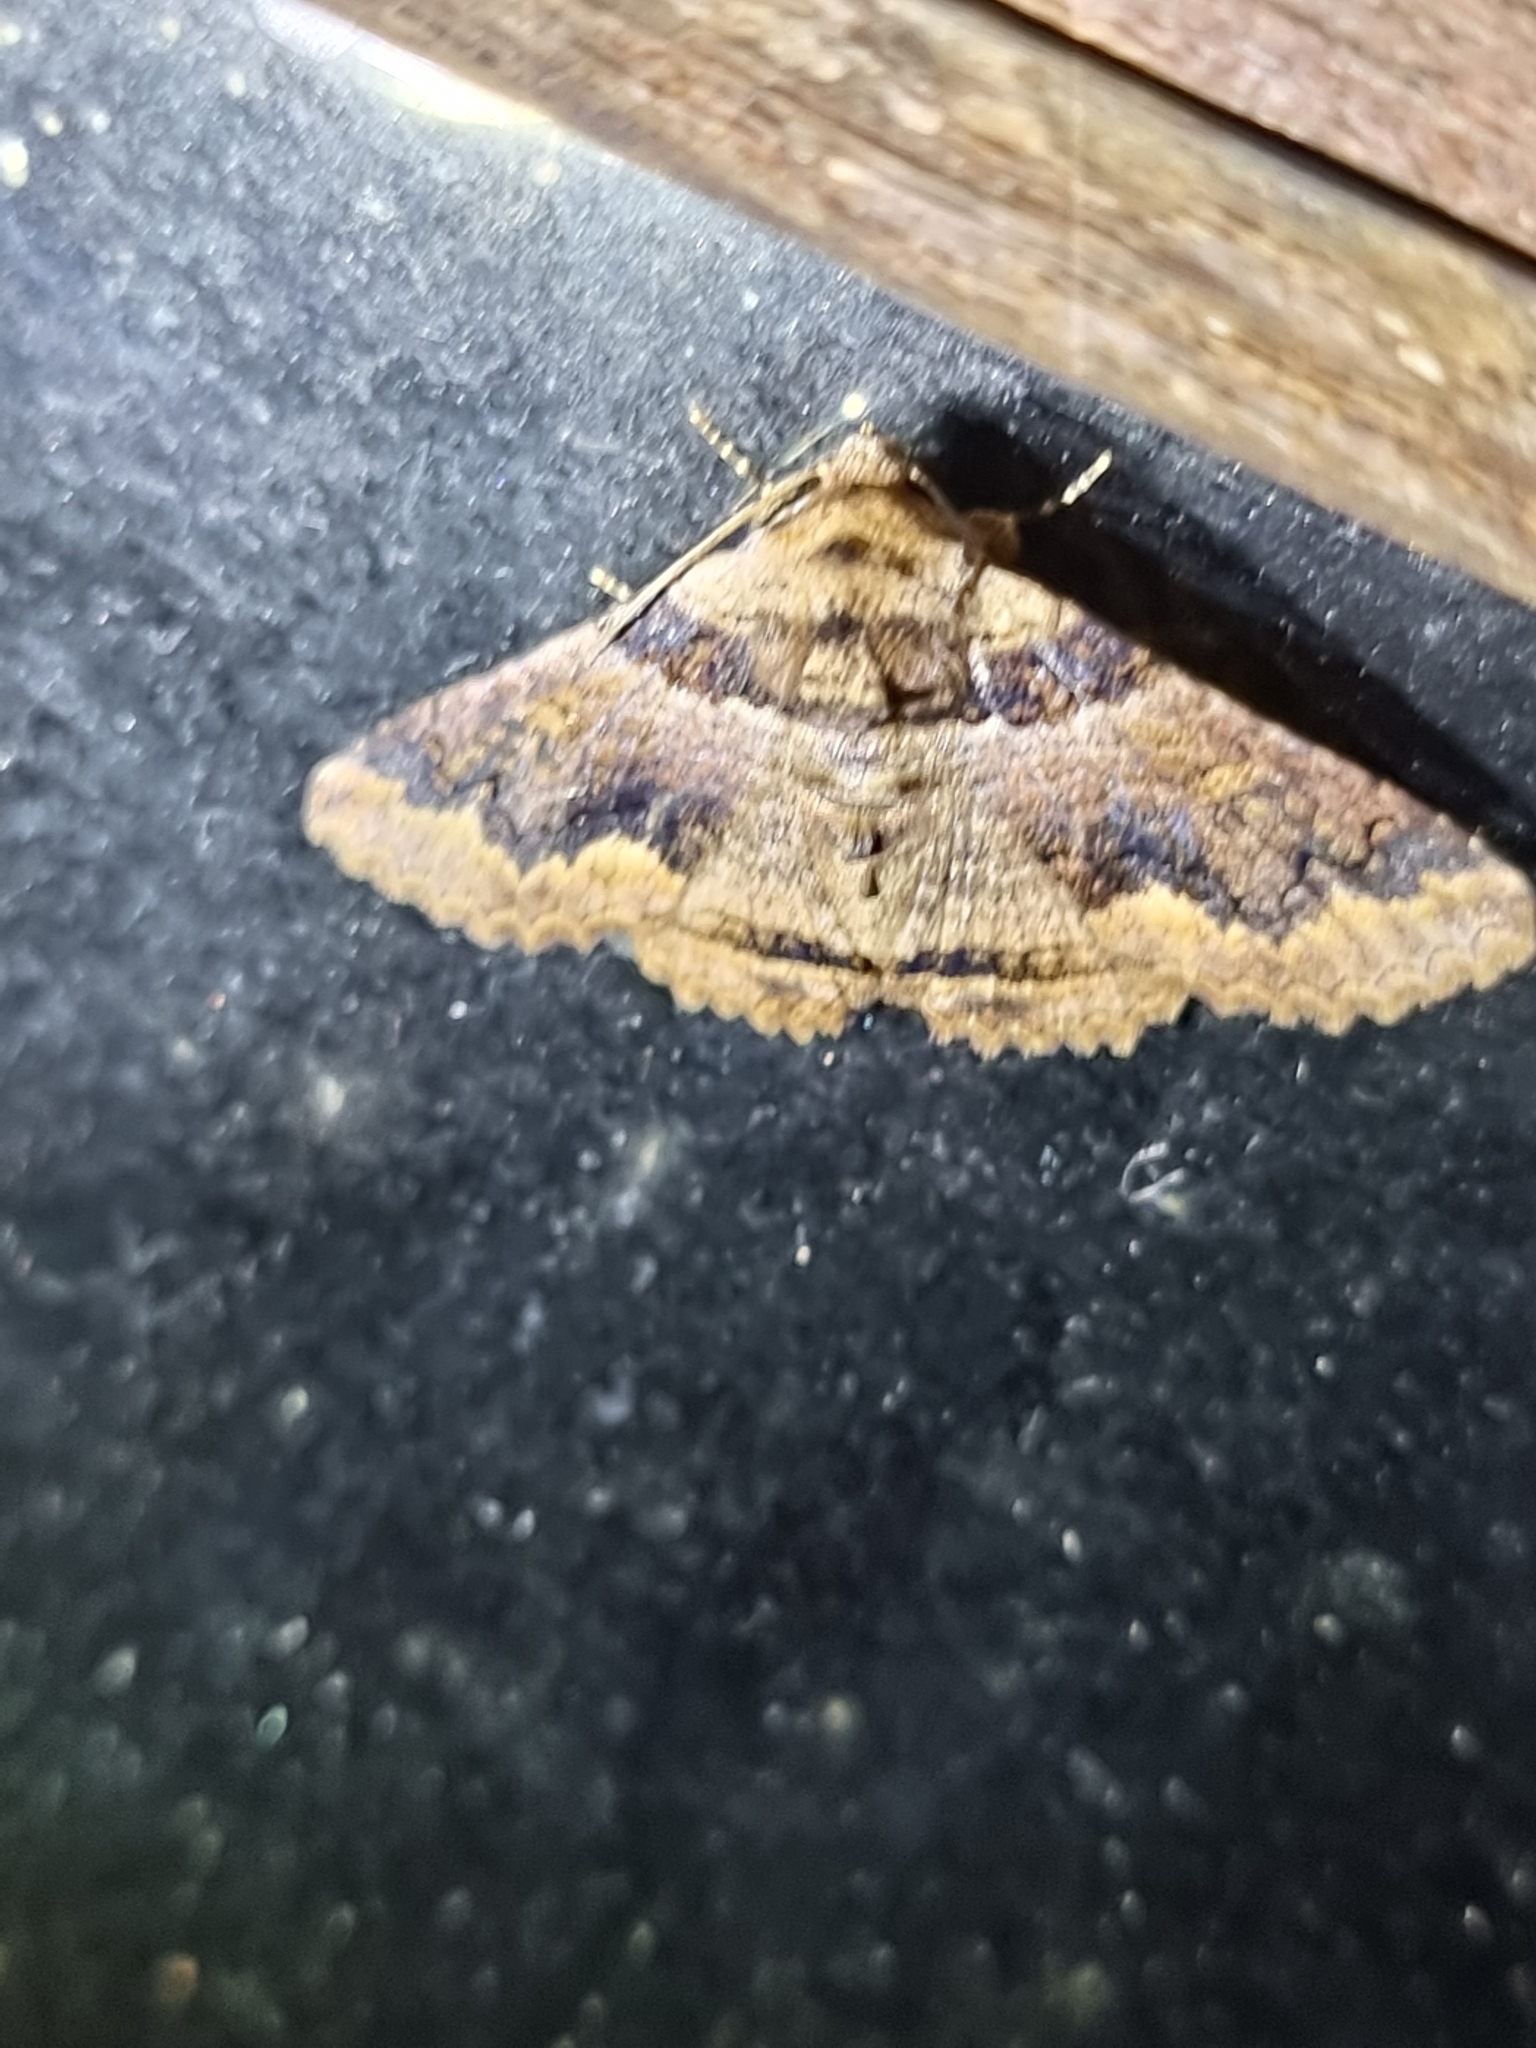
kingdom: Animalia
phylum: Arthropoda
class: Insecta
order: Lepidoptera
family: Erebidae
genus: Pericyma
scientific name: Pericyma cruegeri
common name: Poinciana looper
